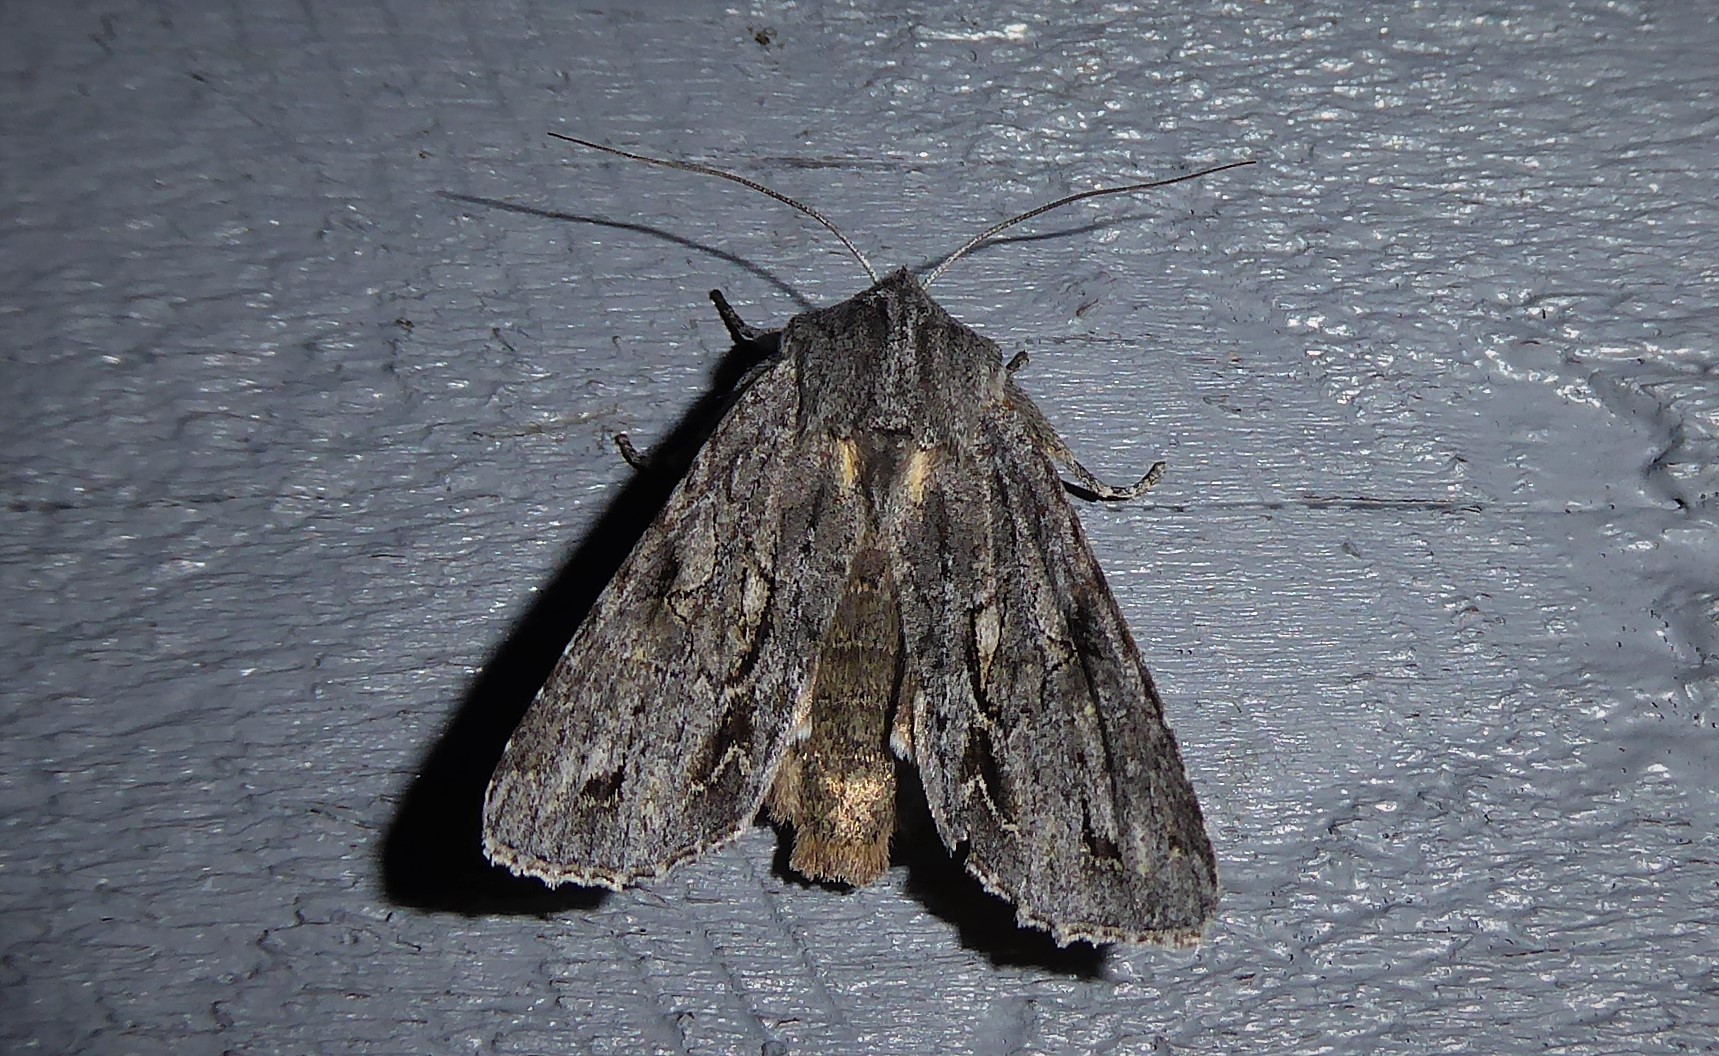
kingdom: Animalia
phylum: Arthropoda
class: Insecta
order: Lepidoptera
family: Noctuidae
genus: Ichneutica
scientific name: Ichneutica
